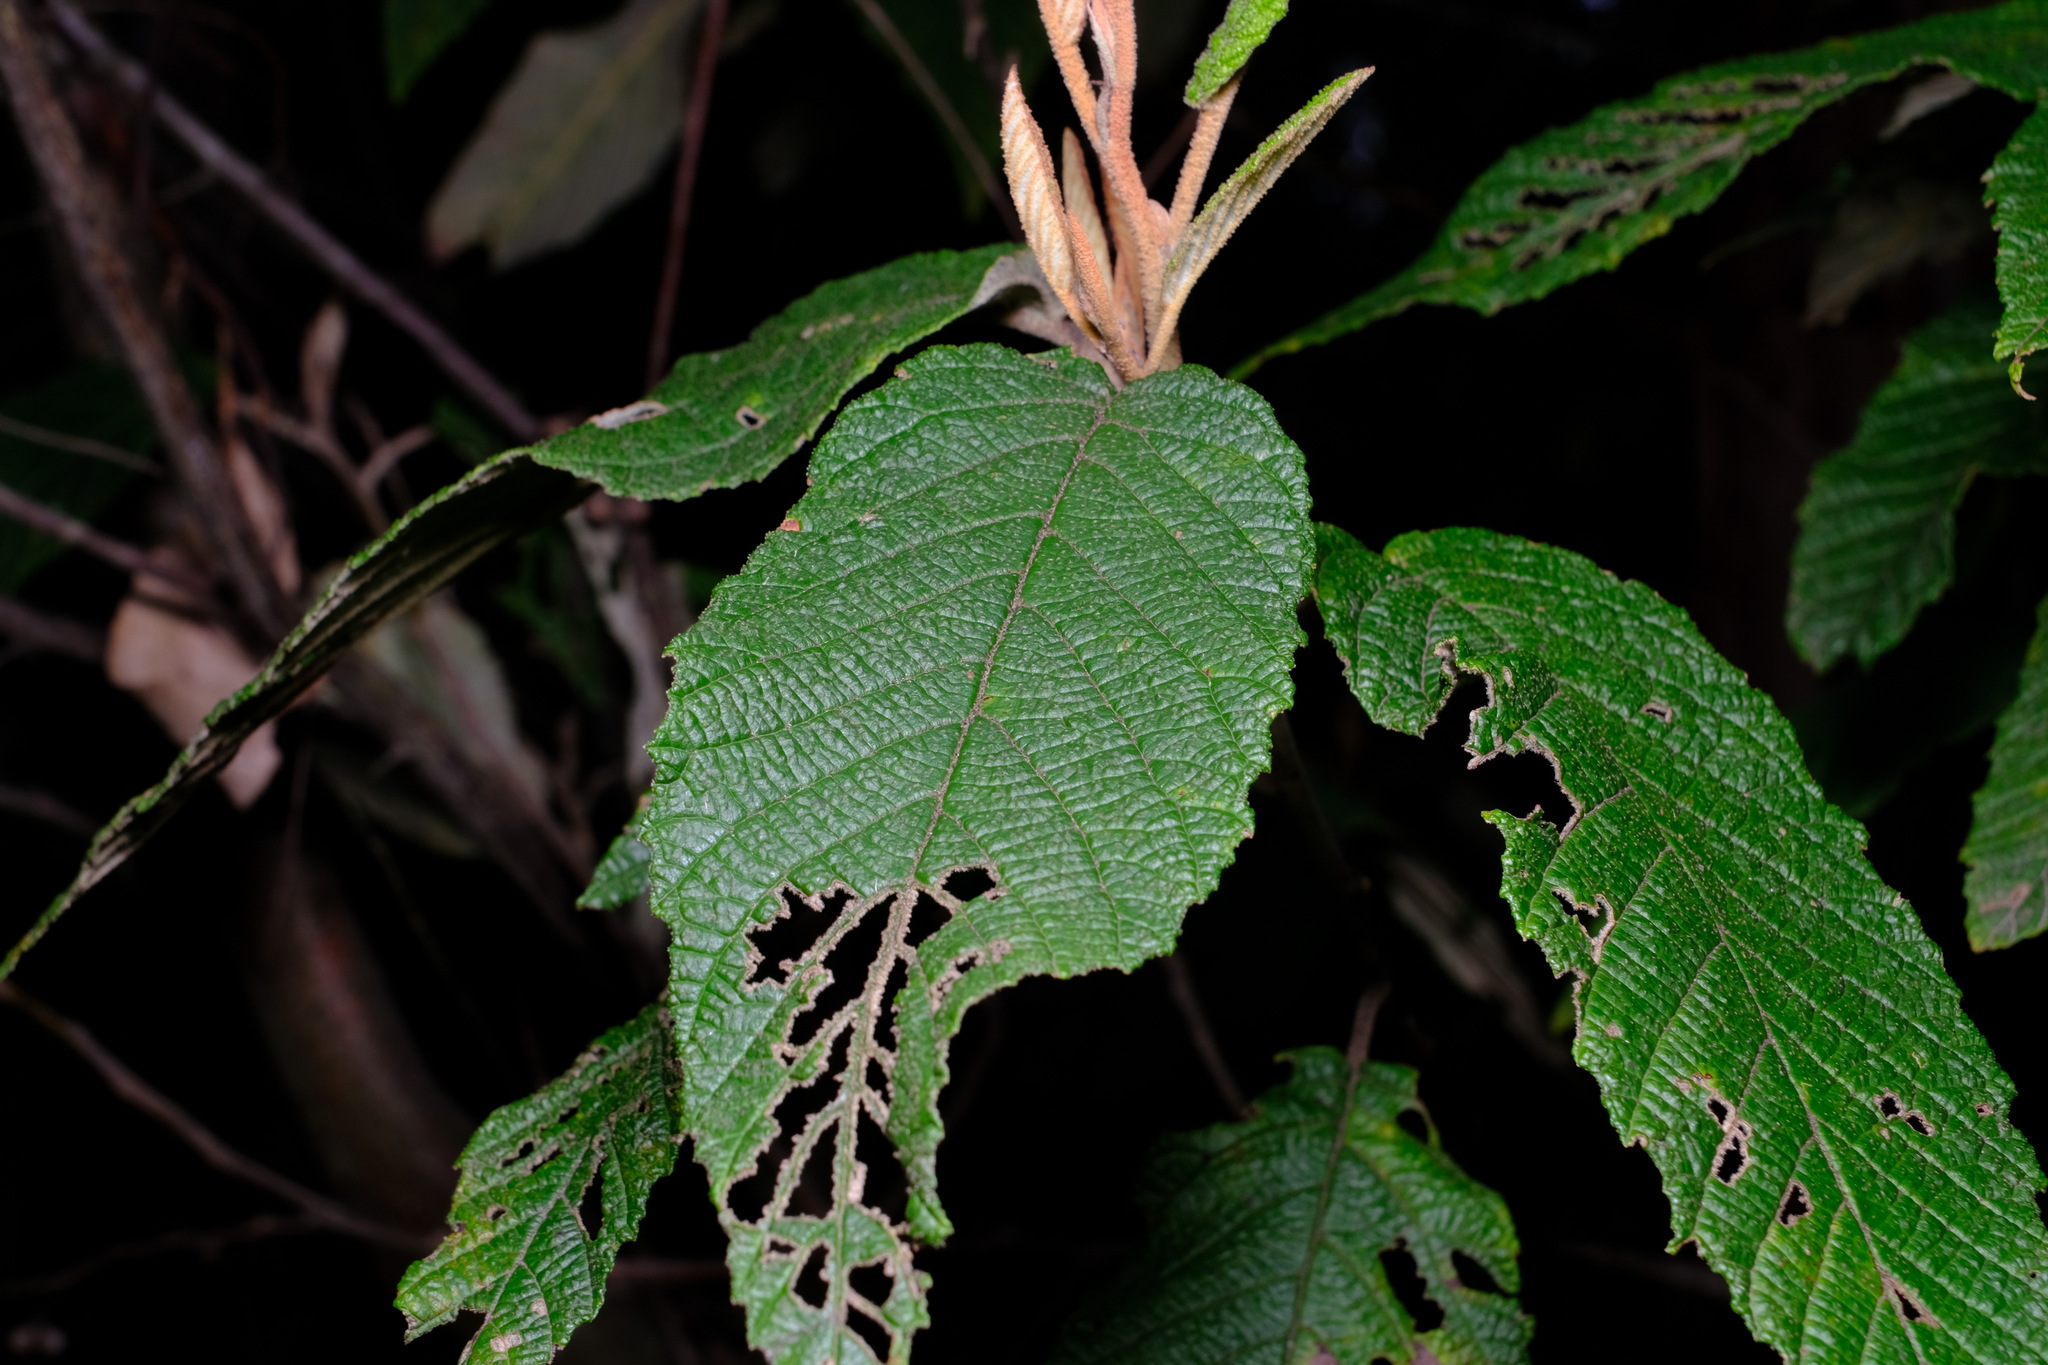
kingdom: Plantae
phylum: Tracheophyta
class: Magnoliopsida
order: Rosales
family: Rhamnaceae
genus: Pomaderris
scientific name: Pomaderris aspera
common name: Hazel pomaderris
